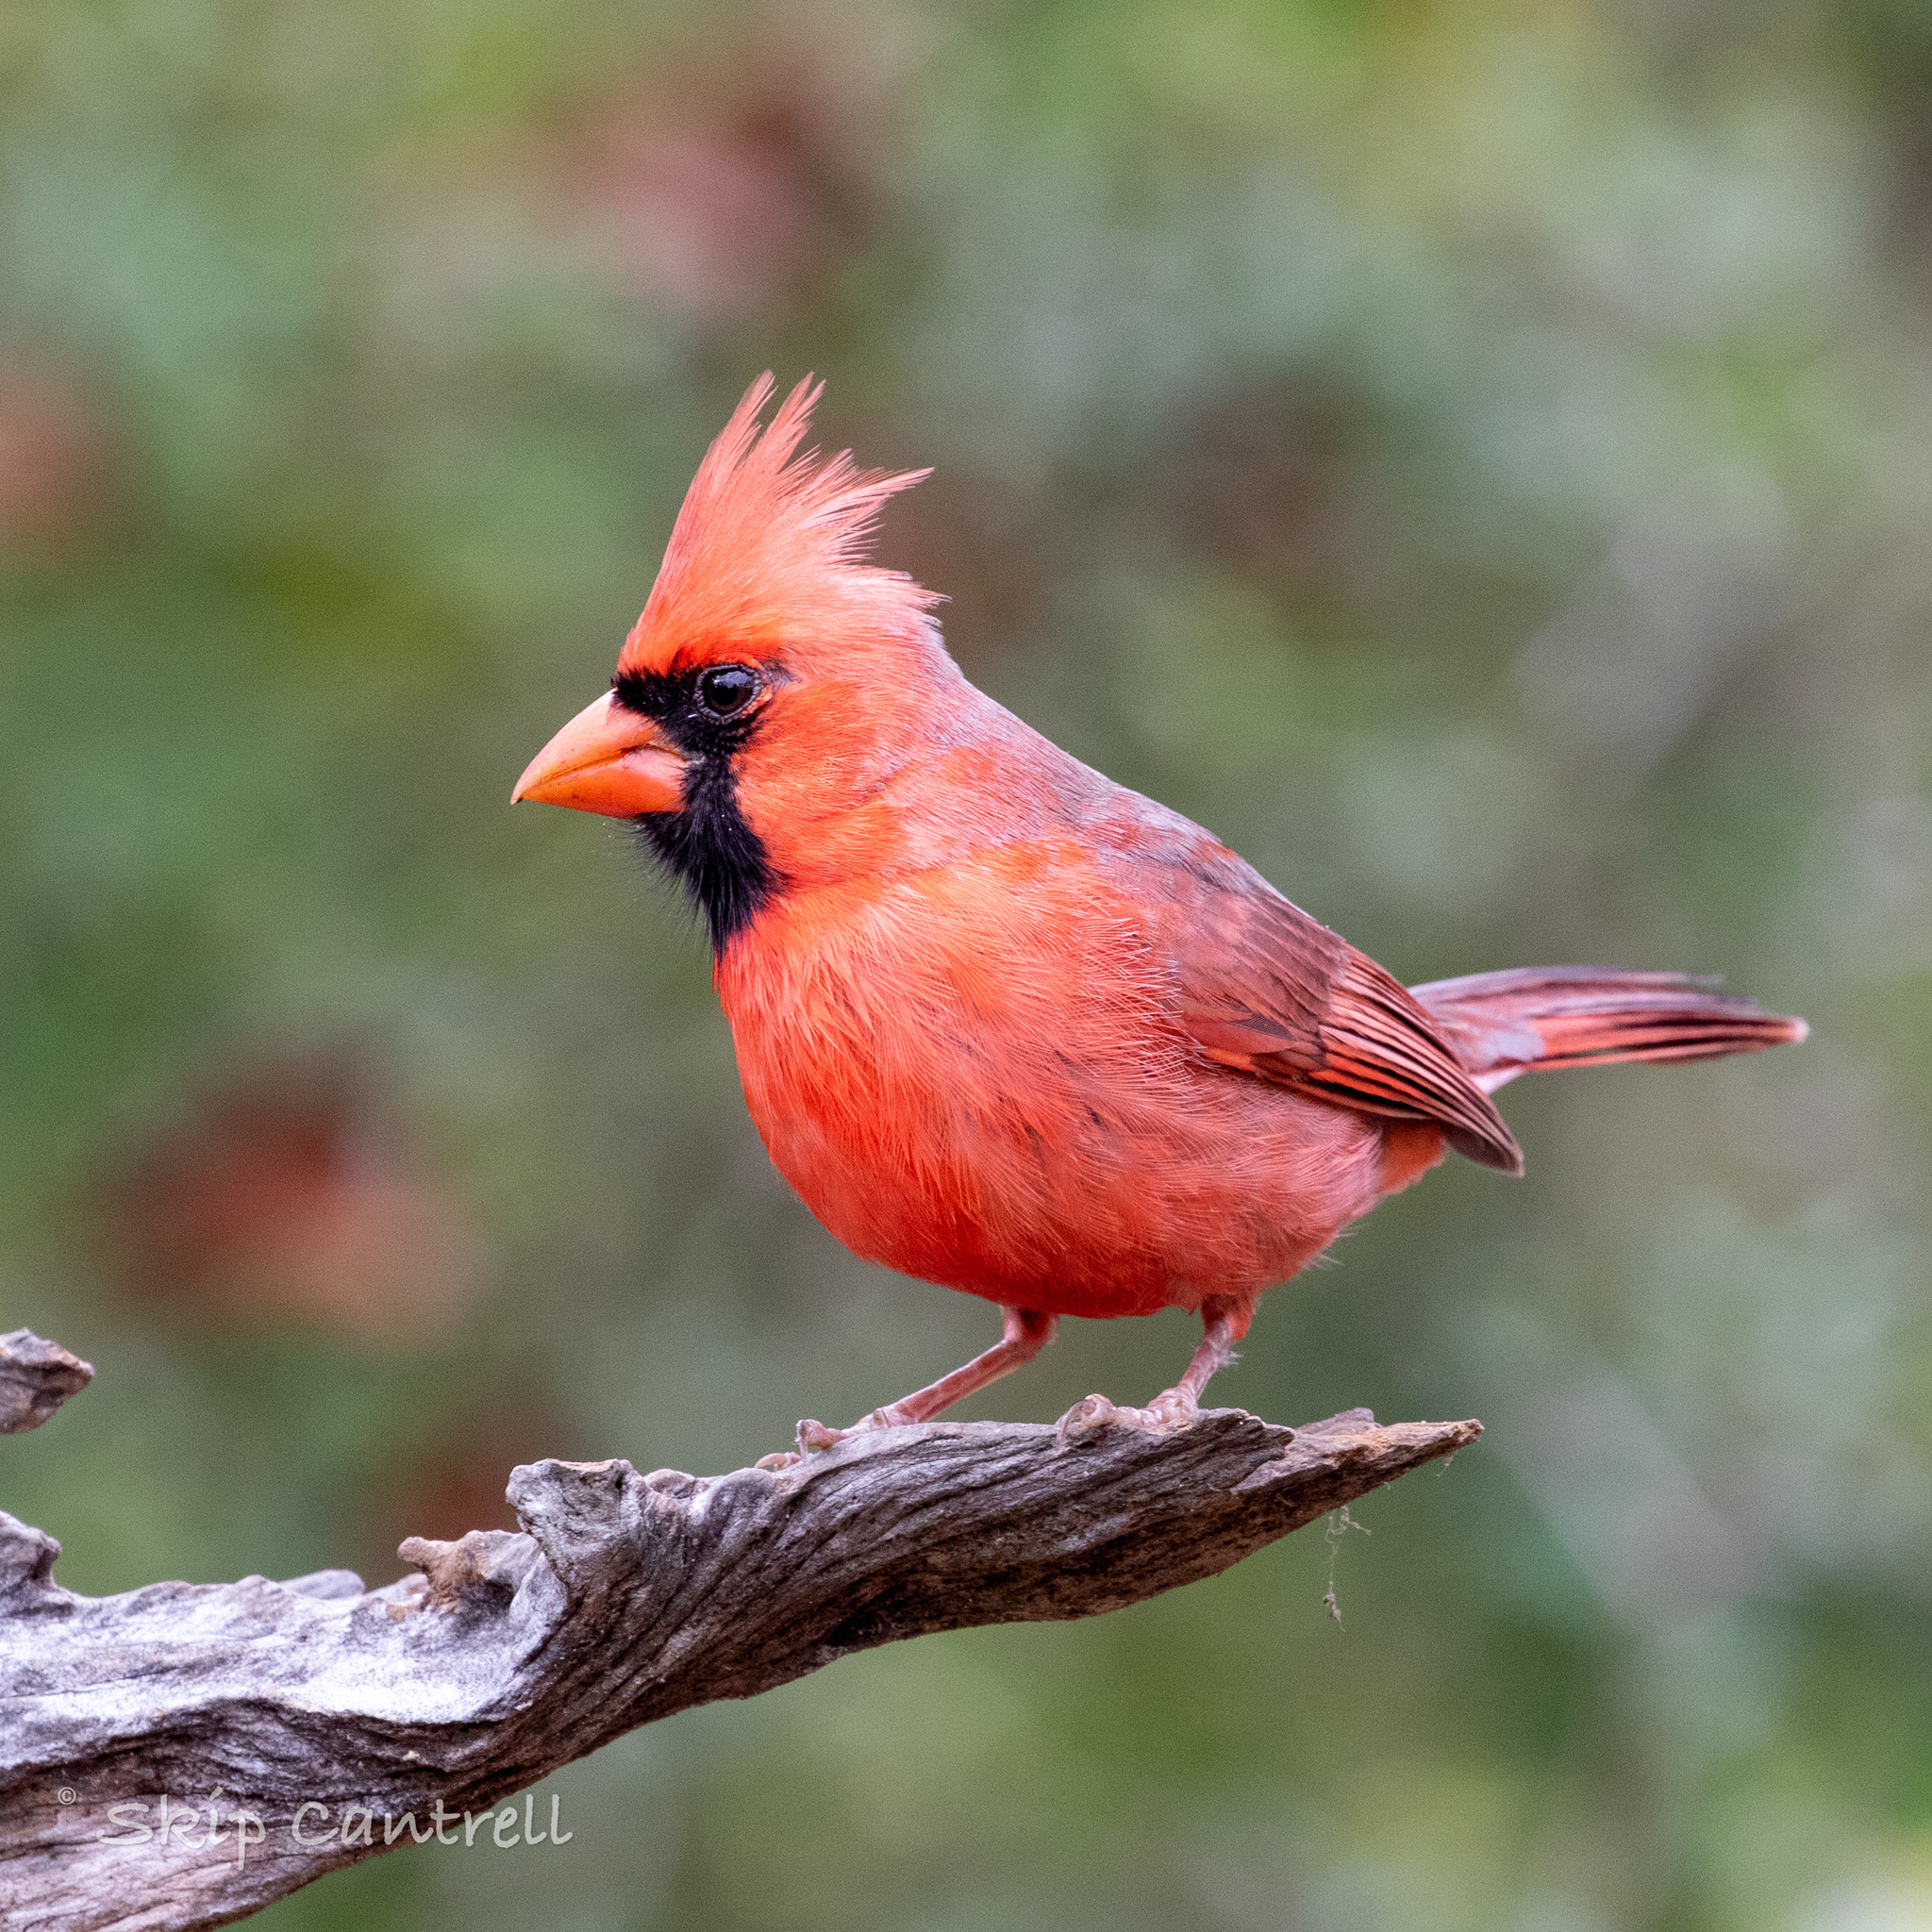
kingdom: Animalia
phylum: Chordata
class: Aves
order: Passeriformes
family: Cardinalidae
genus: Cardinalis
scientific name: Cardinalis cardinalis
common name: Northern cardinal
